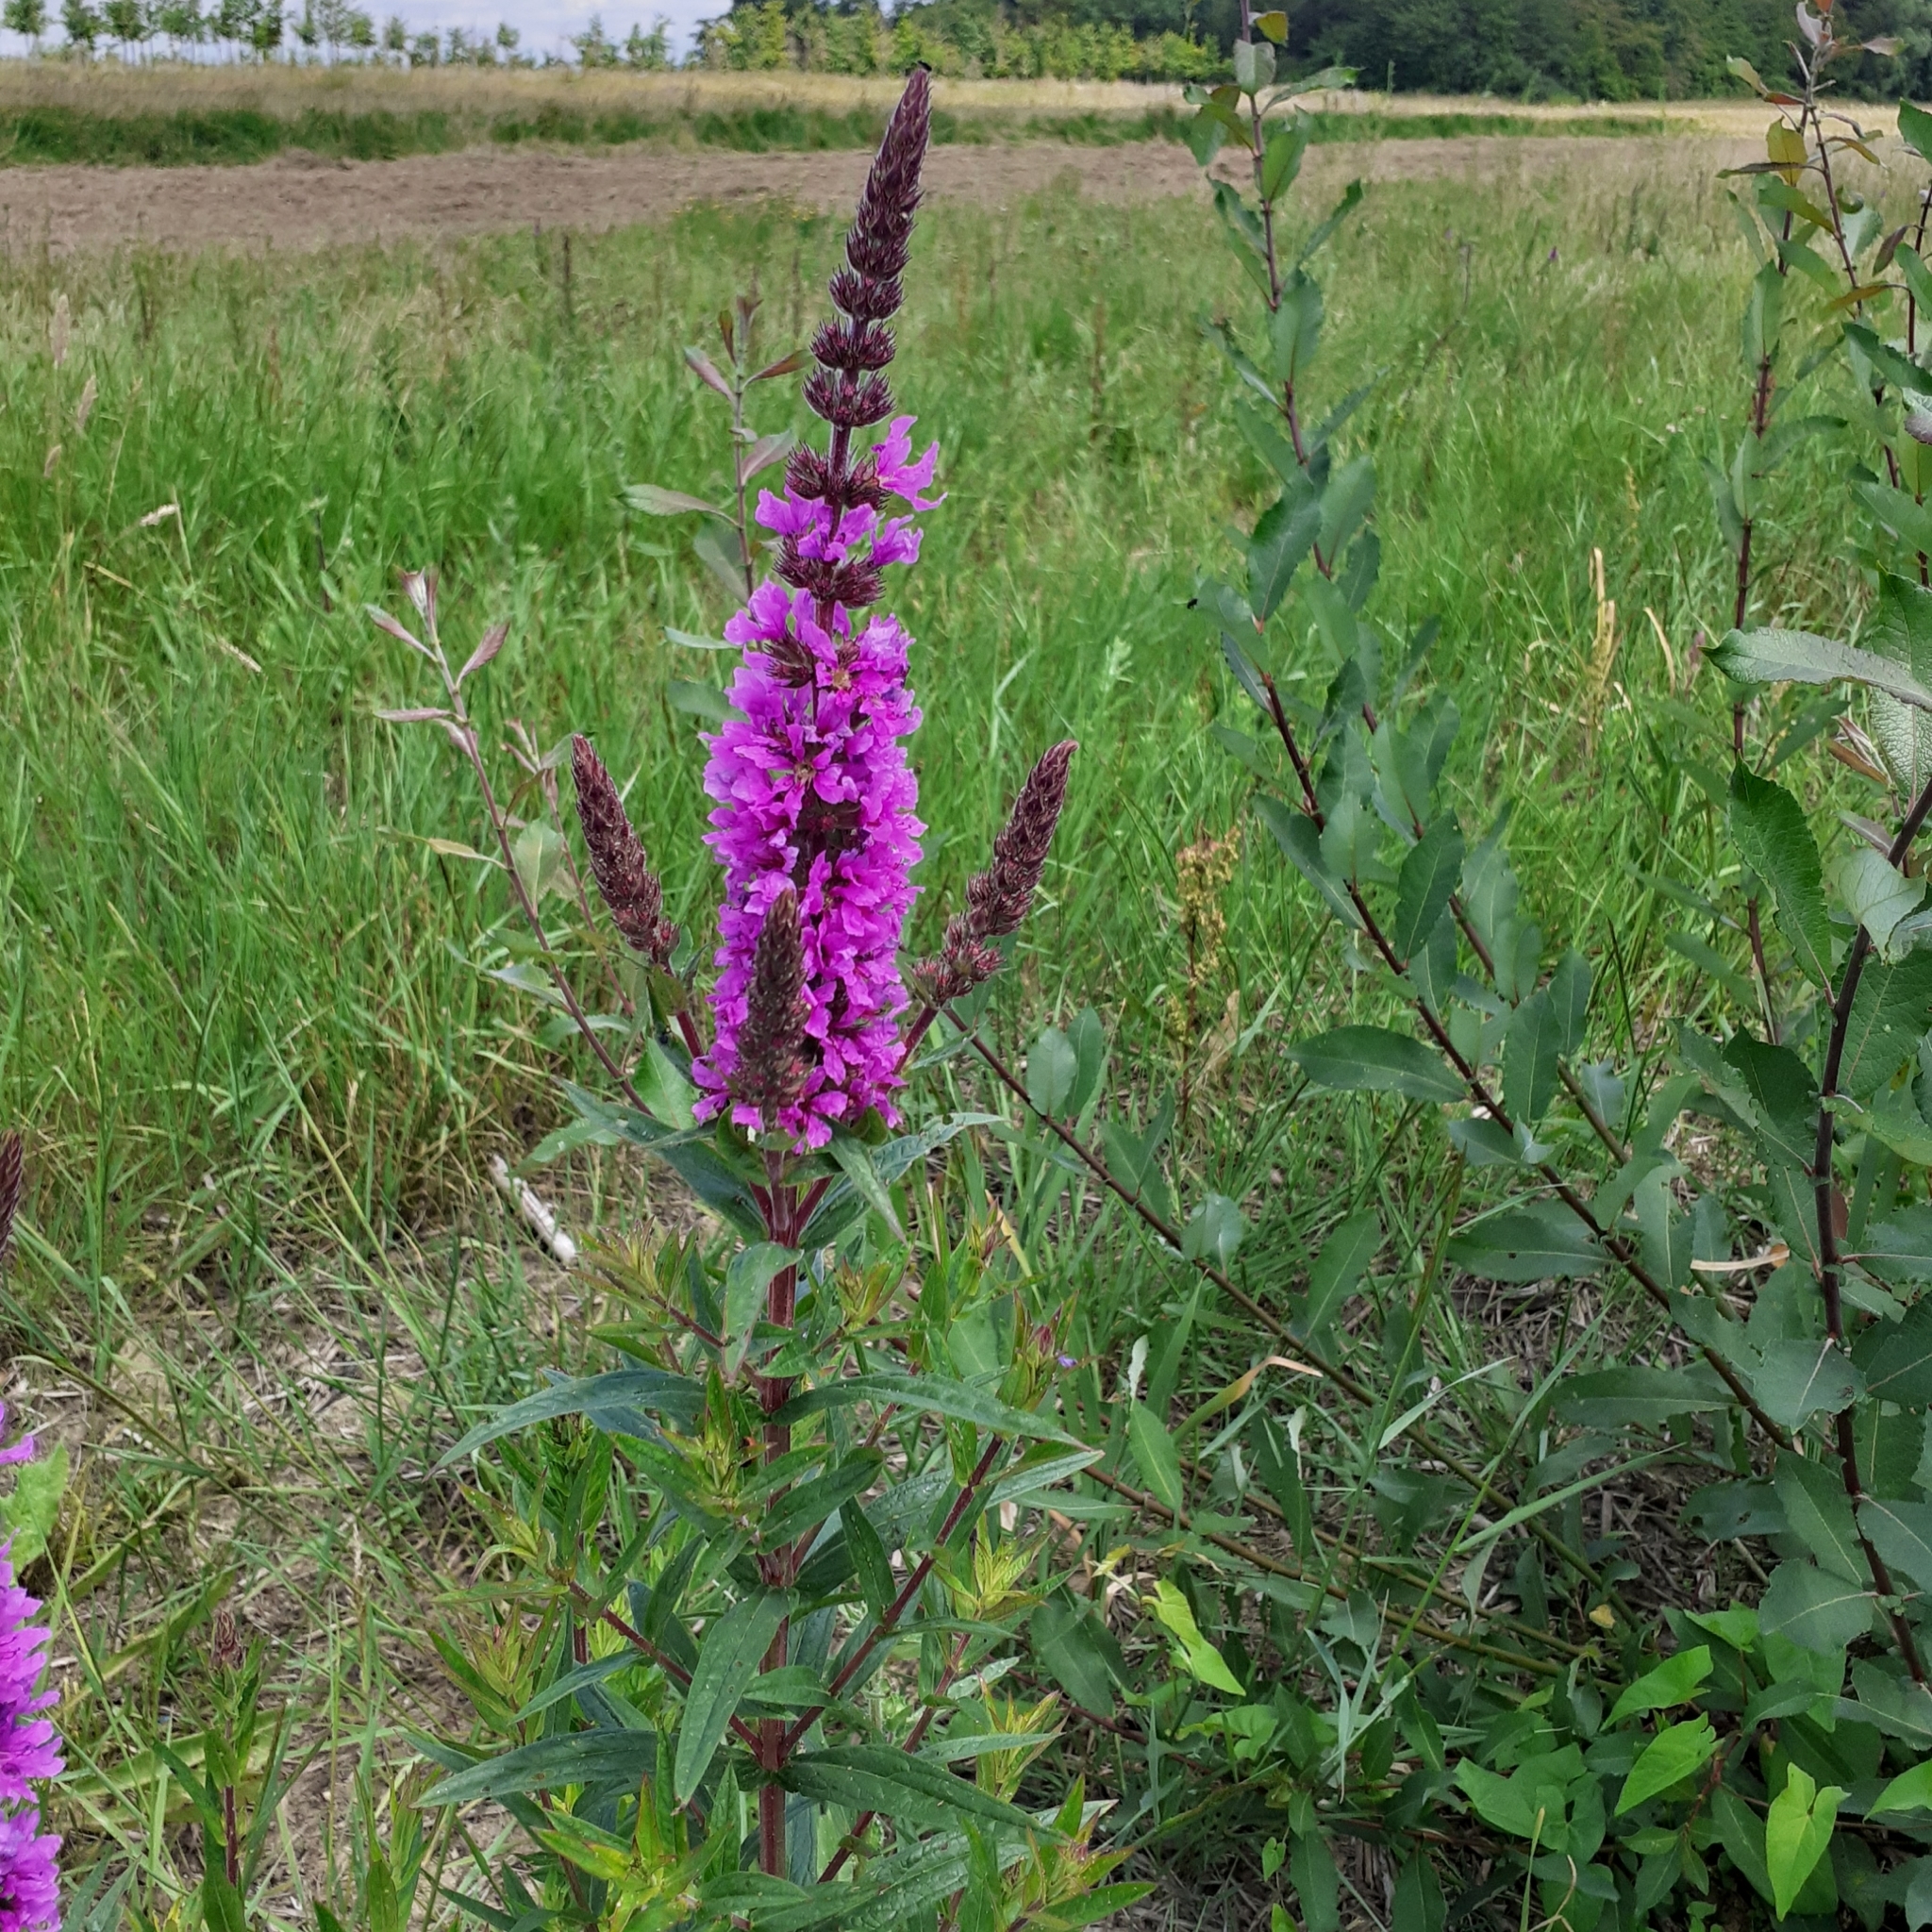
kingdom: Plantae
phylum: Tracheophyta
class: Magnoliopsida
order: Myrtales
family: Lythraceae
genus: Lythrum
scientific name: Lythrum salicaria
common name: Purple loosestrife
